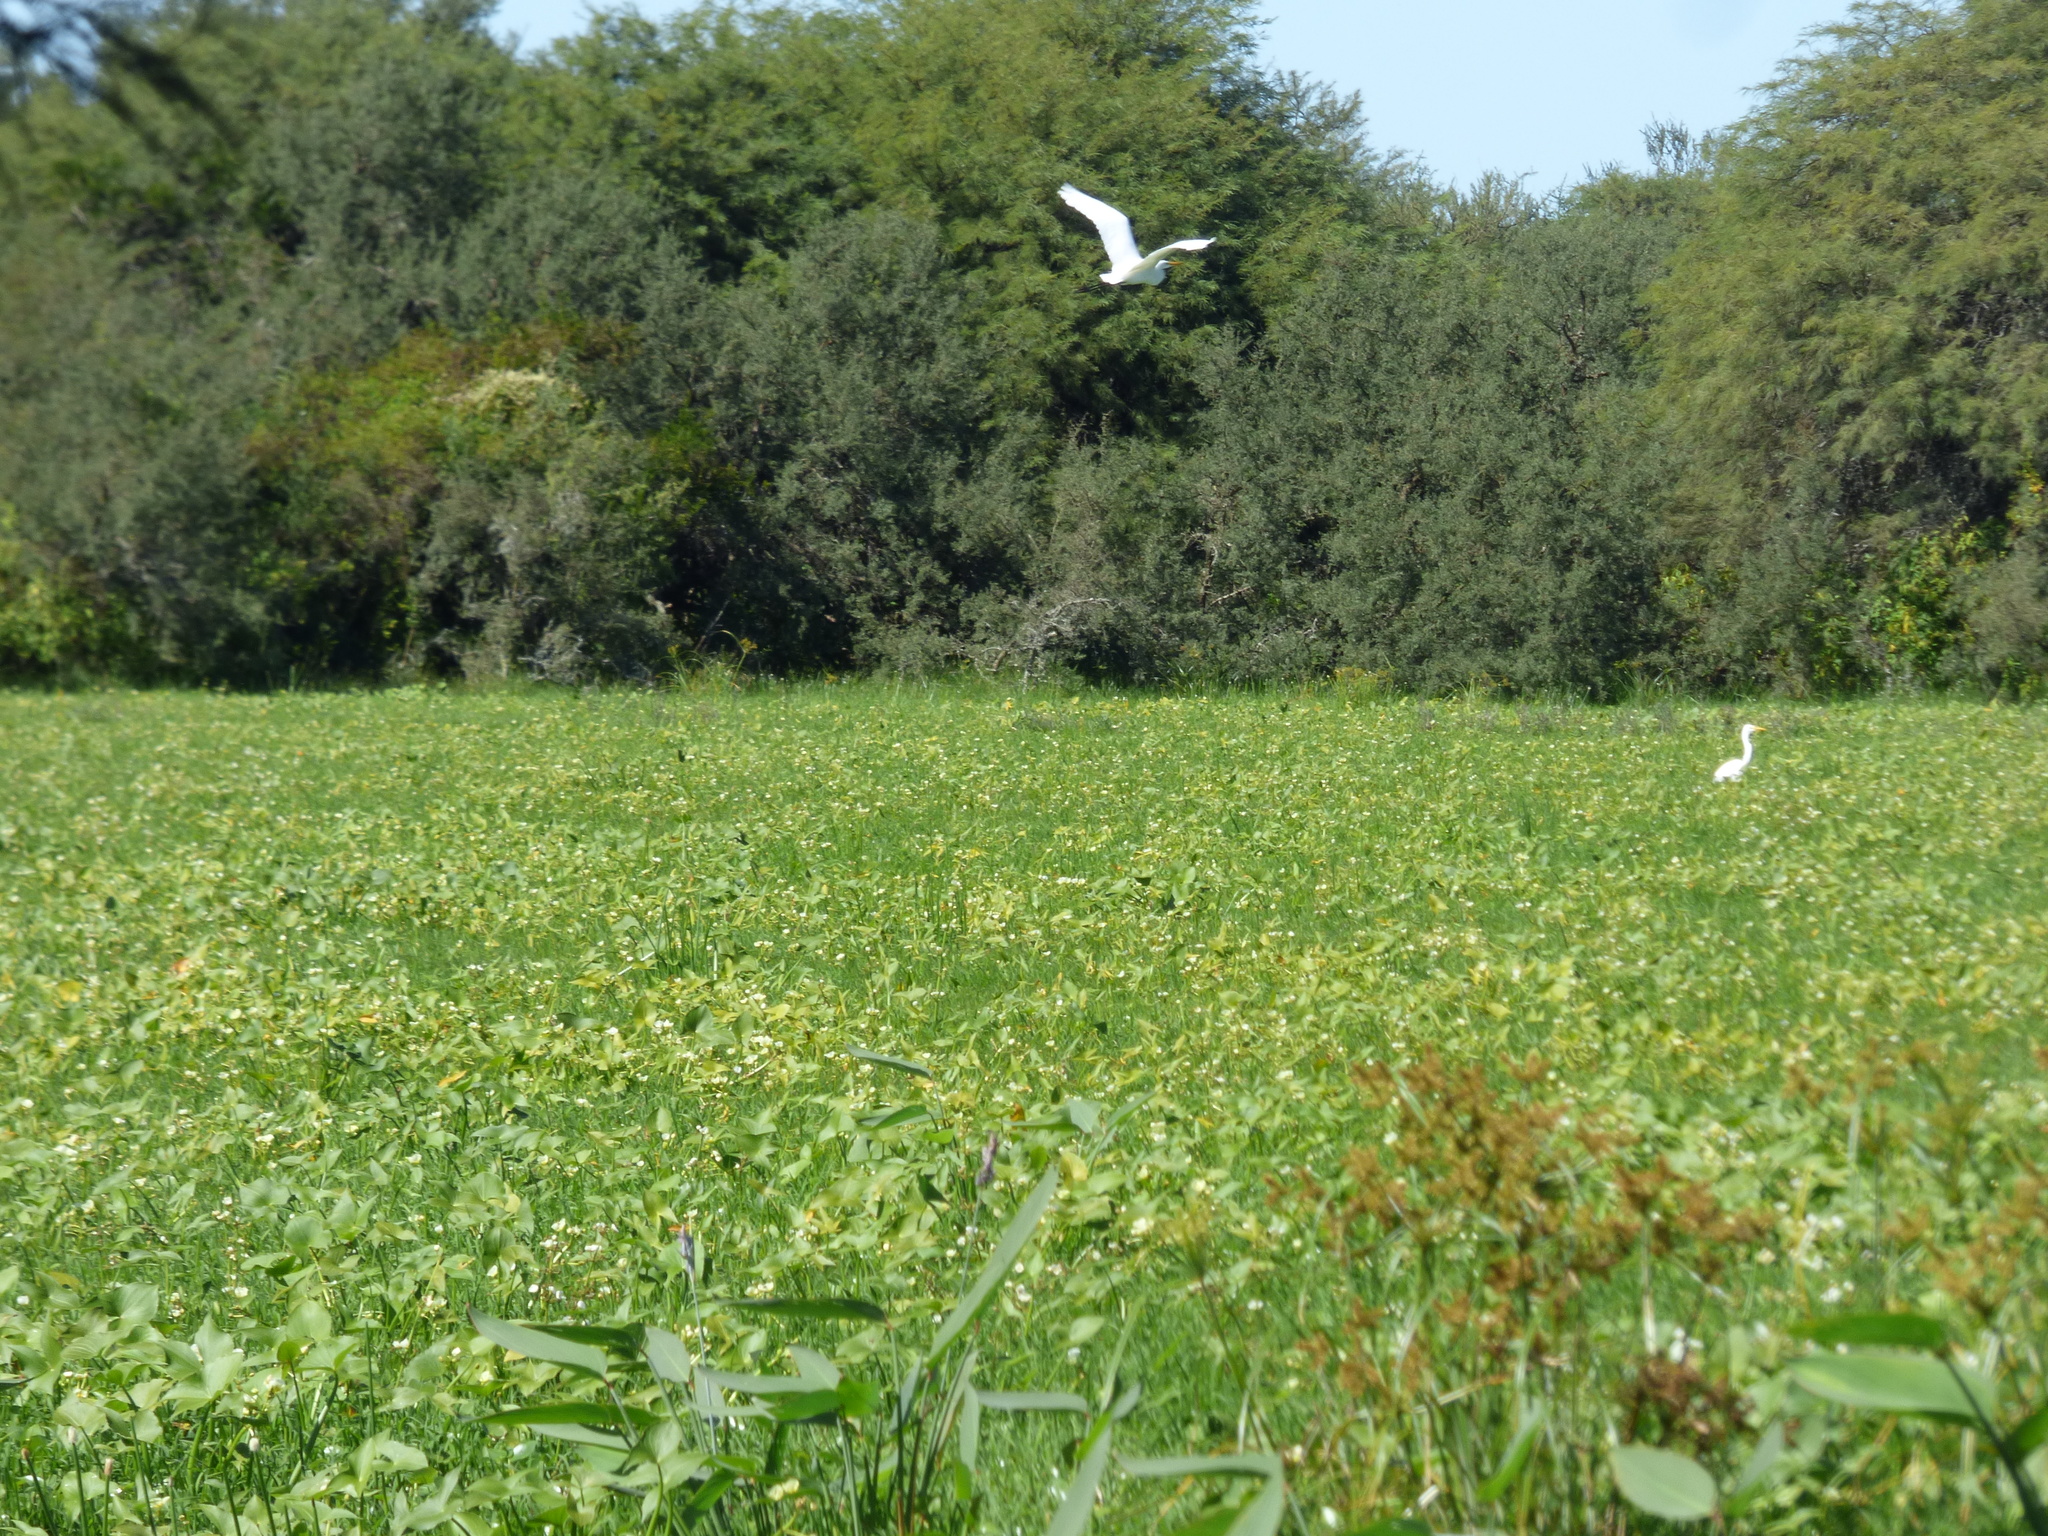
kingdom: Animalia
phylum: Chordata
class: Aves
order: Pelecaniformes
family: Ardeidae
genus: Ardea
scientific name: Ardea alba
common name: Great egret
